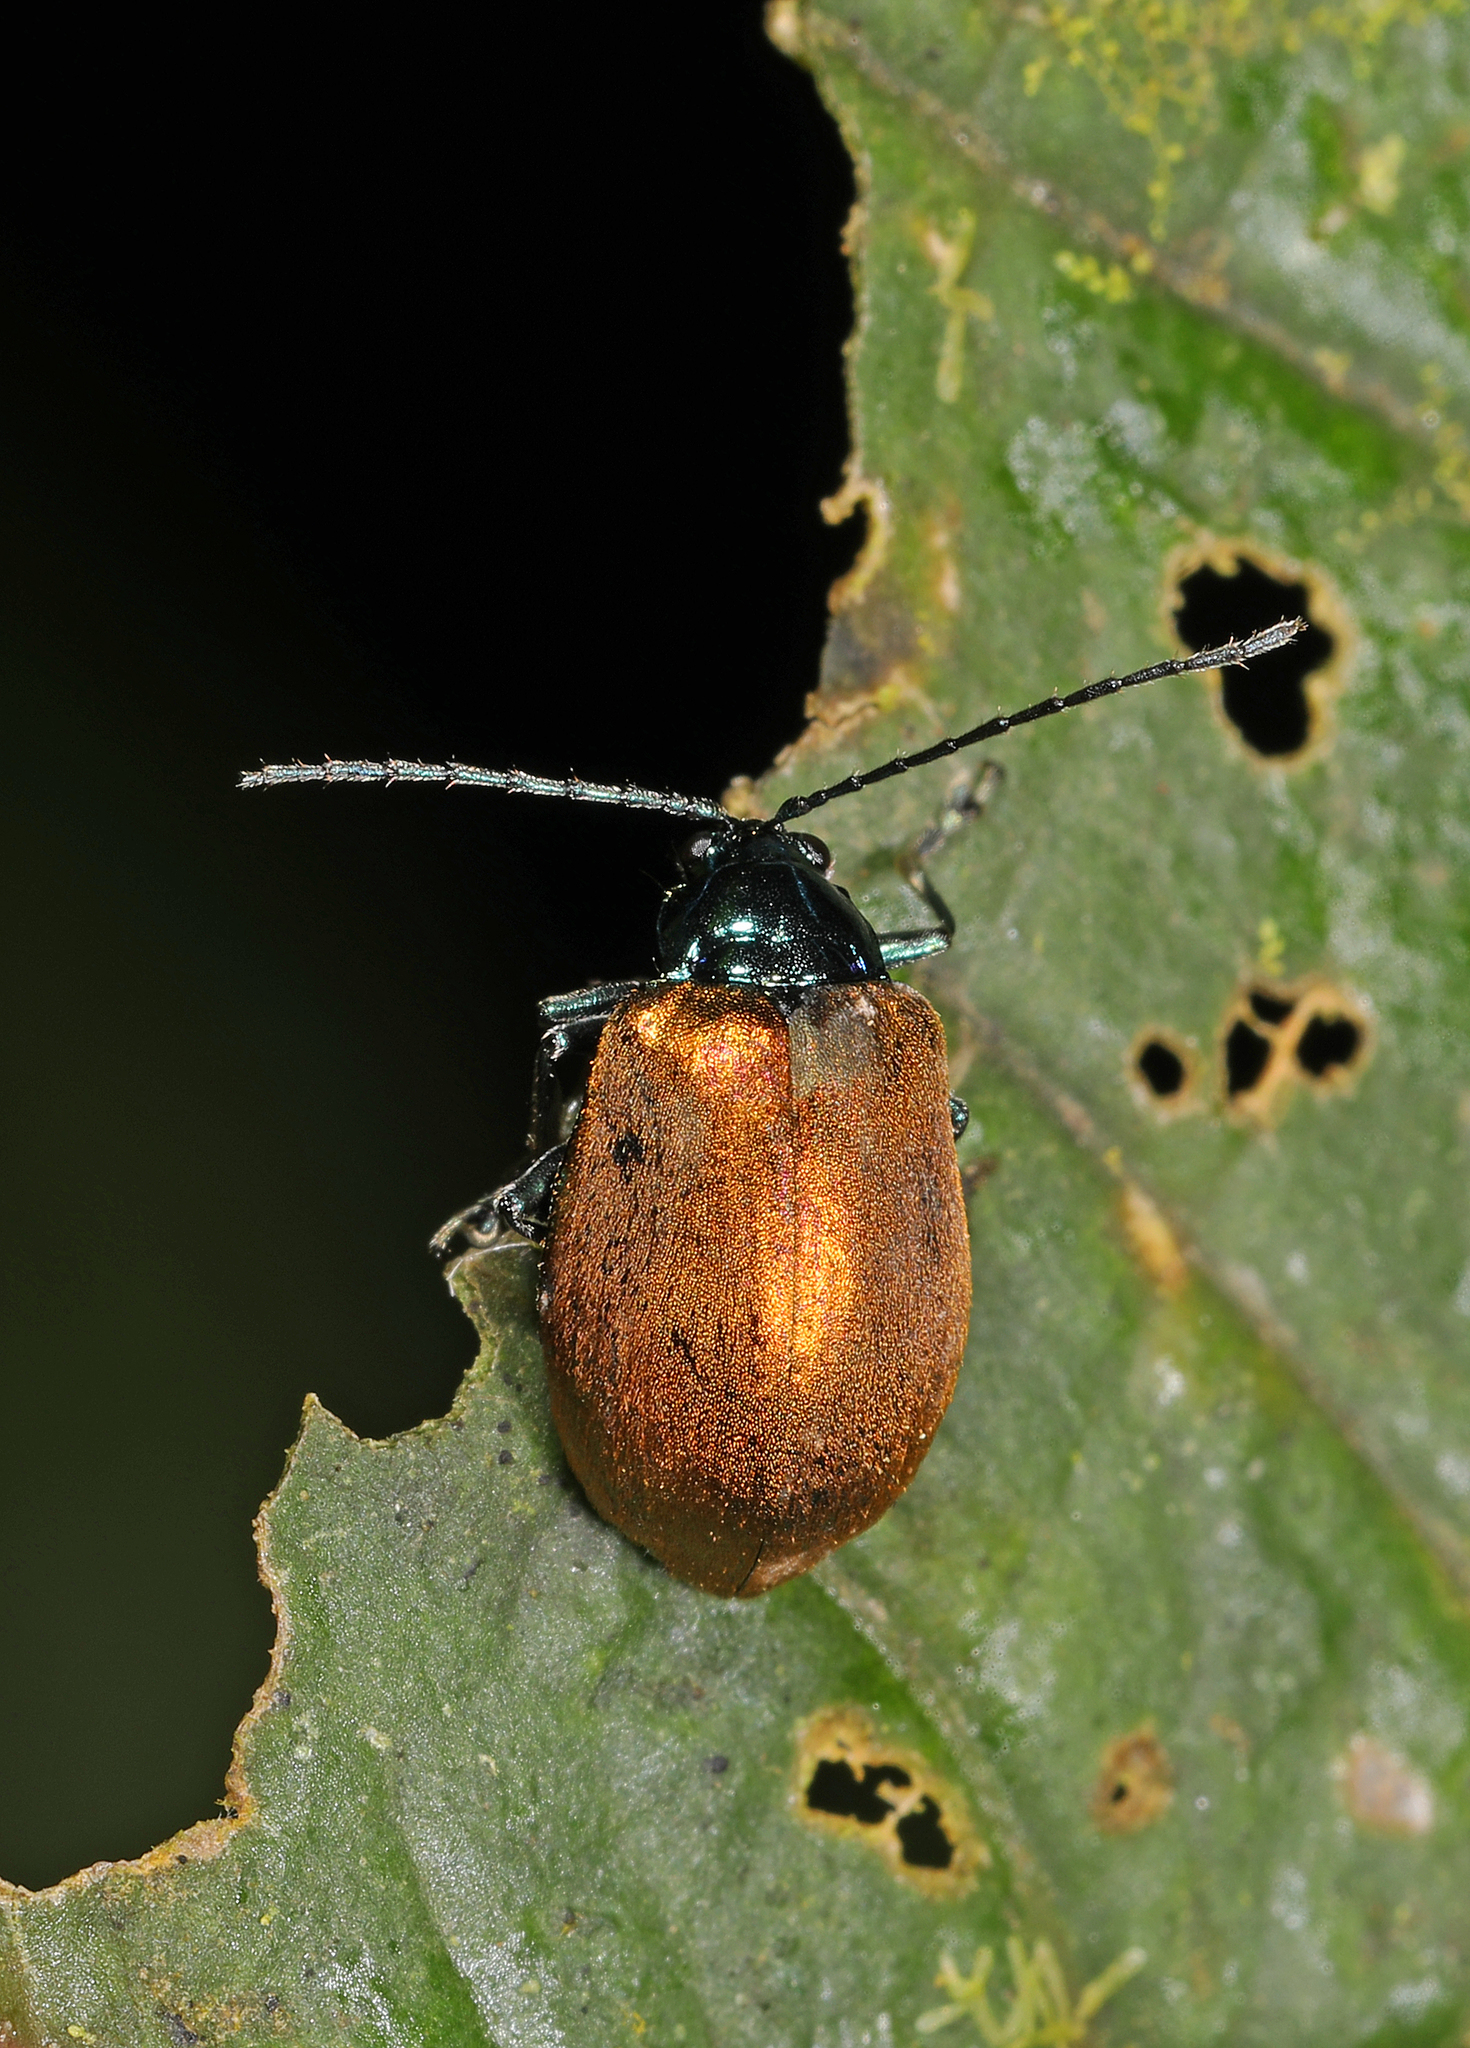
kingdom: Animalia
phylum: Arthropoda
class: Insecta
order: Coleoptera
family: Chrysomelidae
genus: Lactina
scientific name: Lactina
